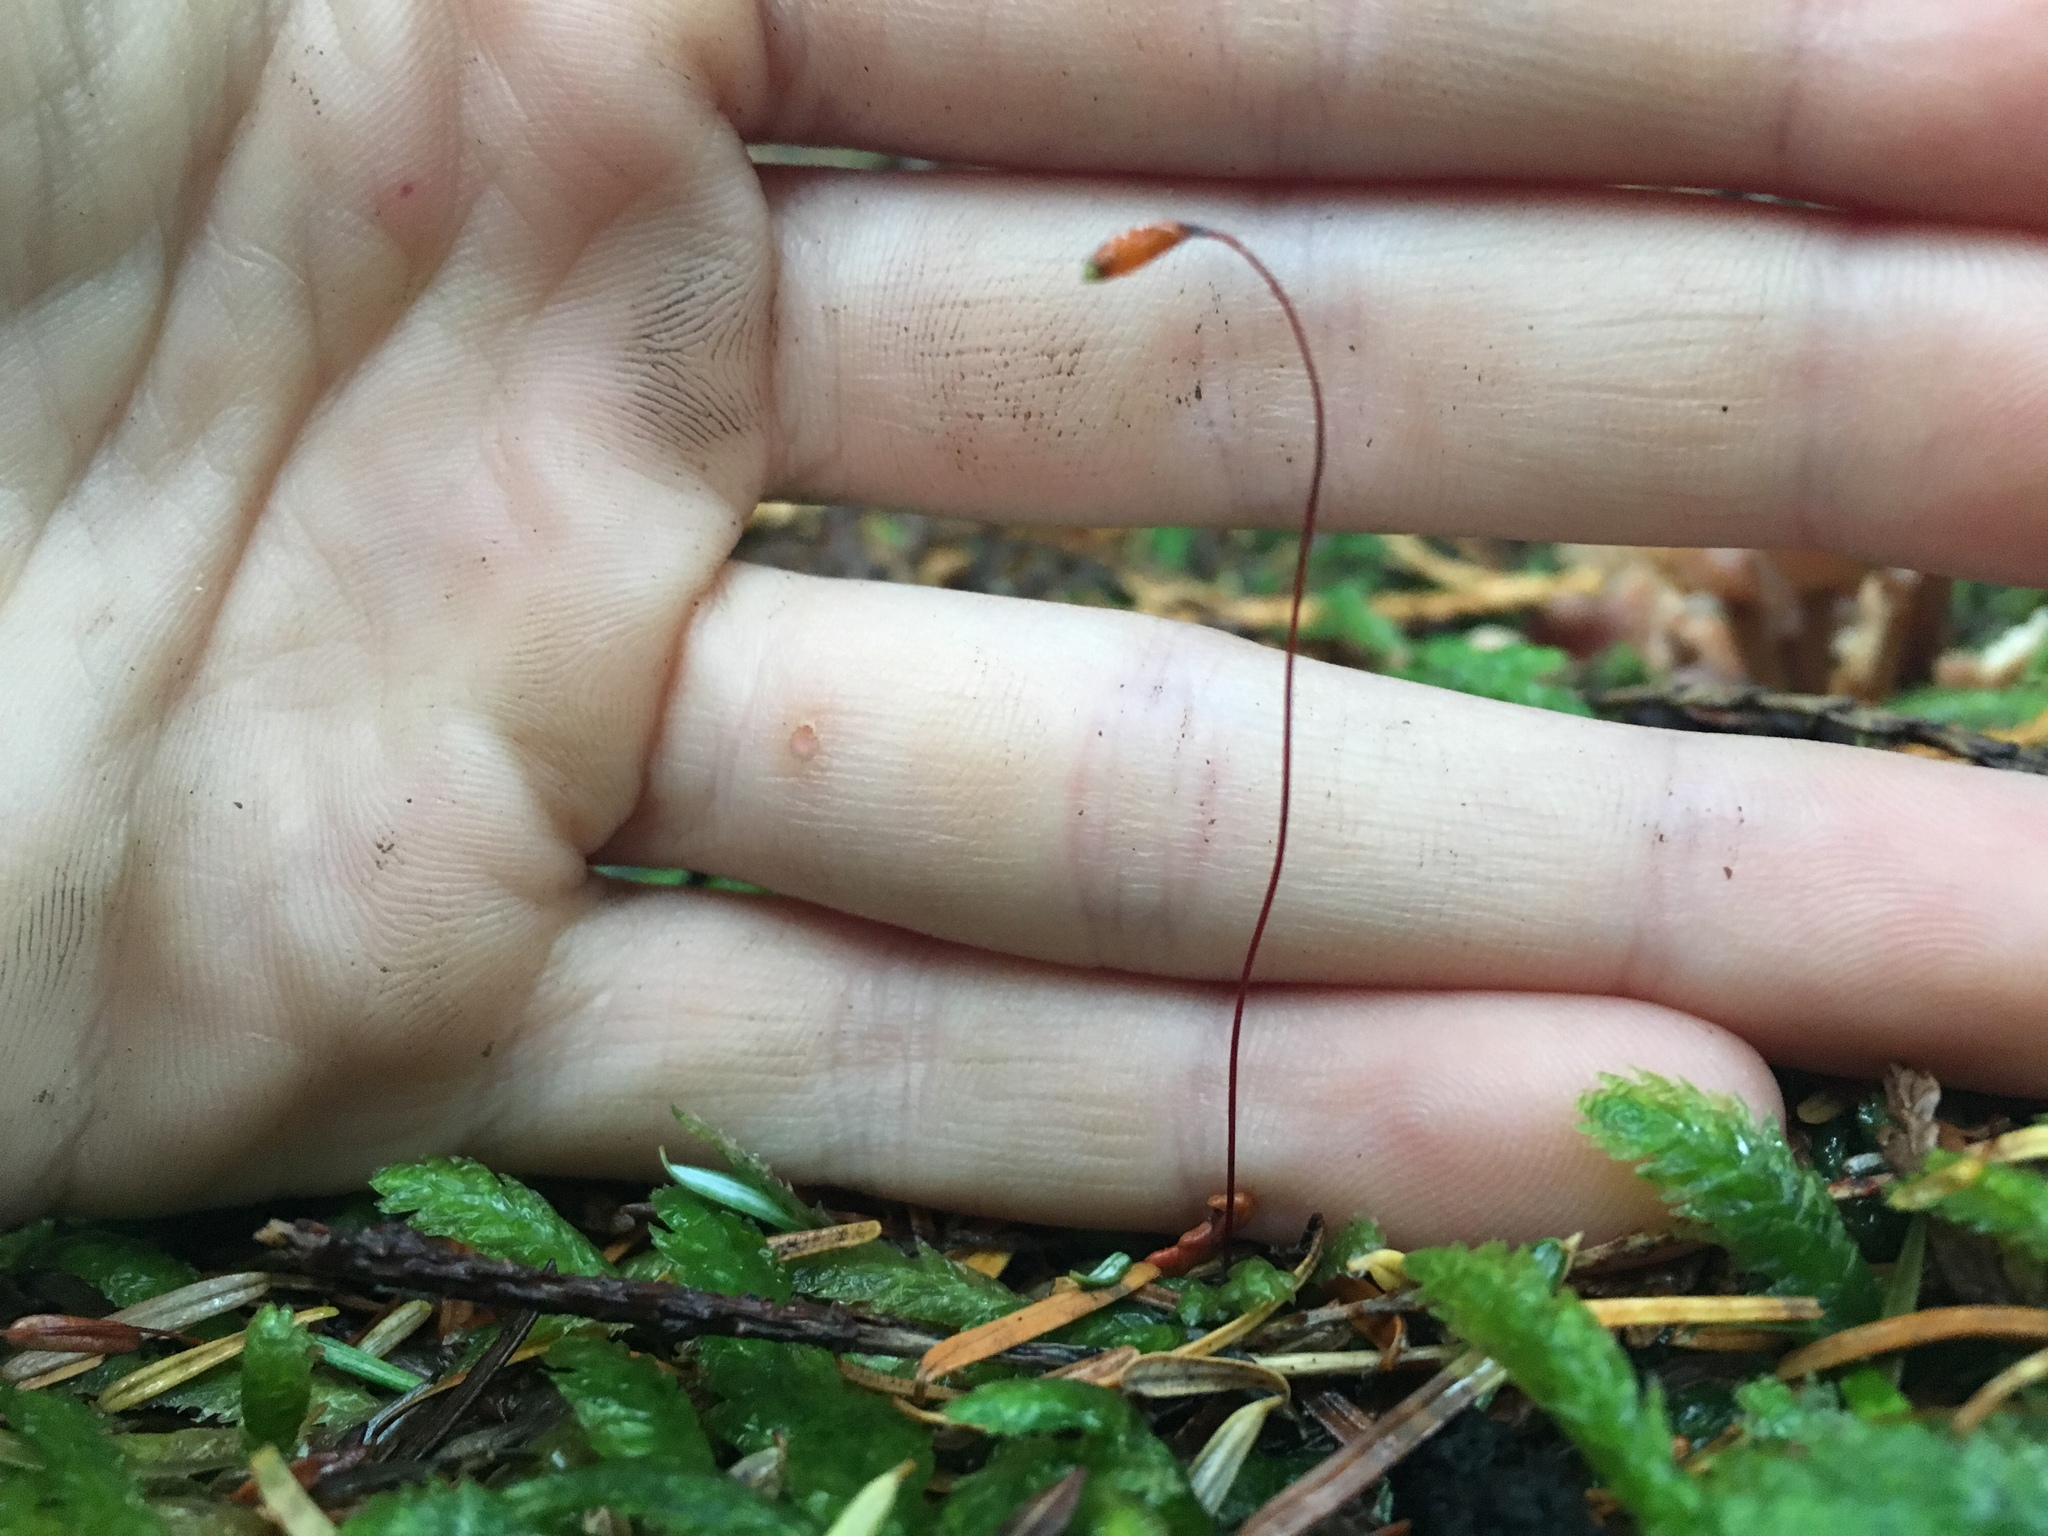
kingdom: Plantae
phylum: Bryophyta
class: Bryopsida
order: Hypnales
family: Plagiotheciaceae
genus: Plagiothecium
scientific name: Plagiothecium undulatum
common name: Waved silk-moss
